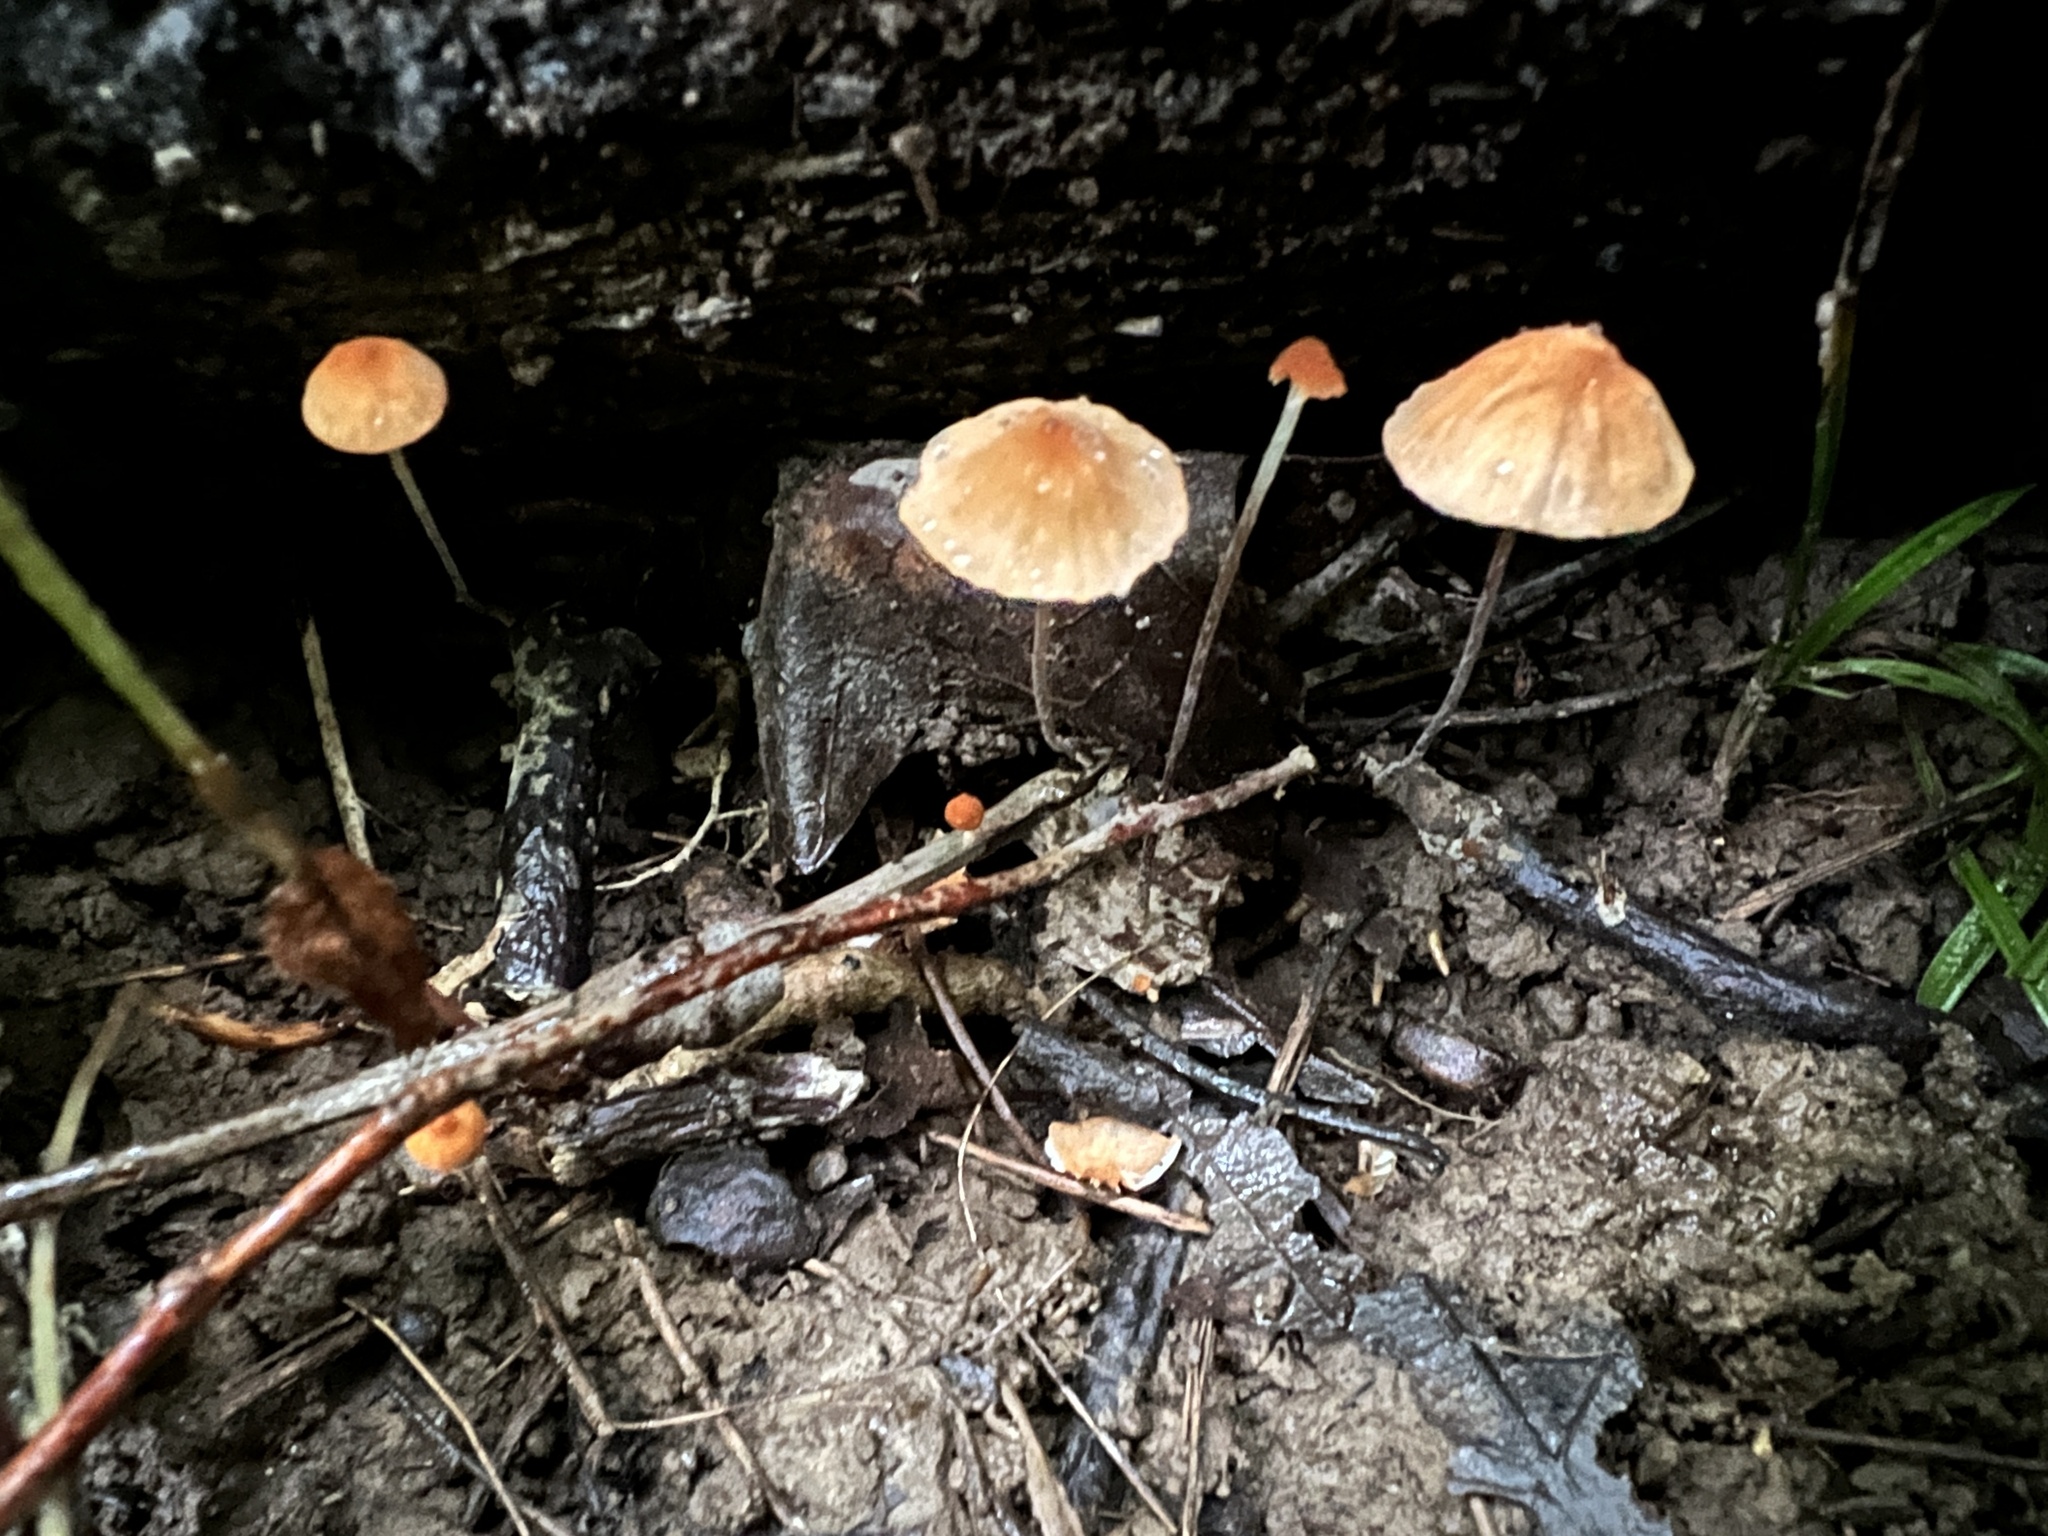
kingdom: Fungi
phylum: Basidiomycota
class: Agaricomycetes
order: Agaricales
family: Marasmiaceae
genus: Marasmius
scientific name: Marasmius siccus
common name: Orange pinwheel
